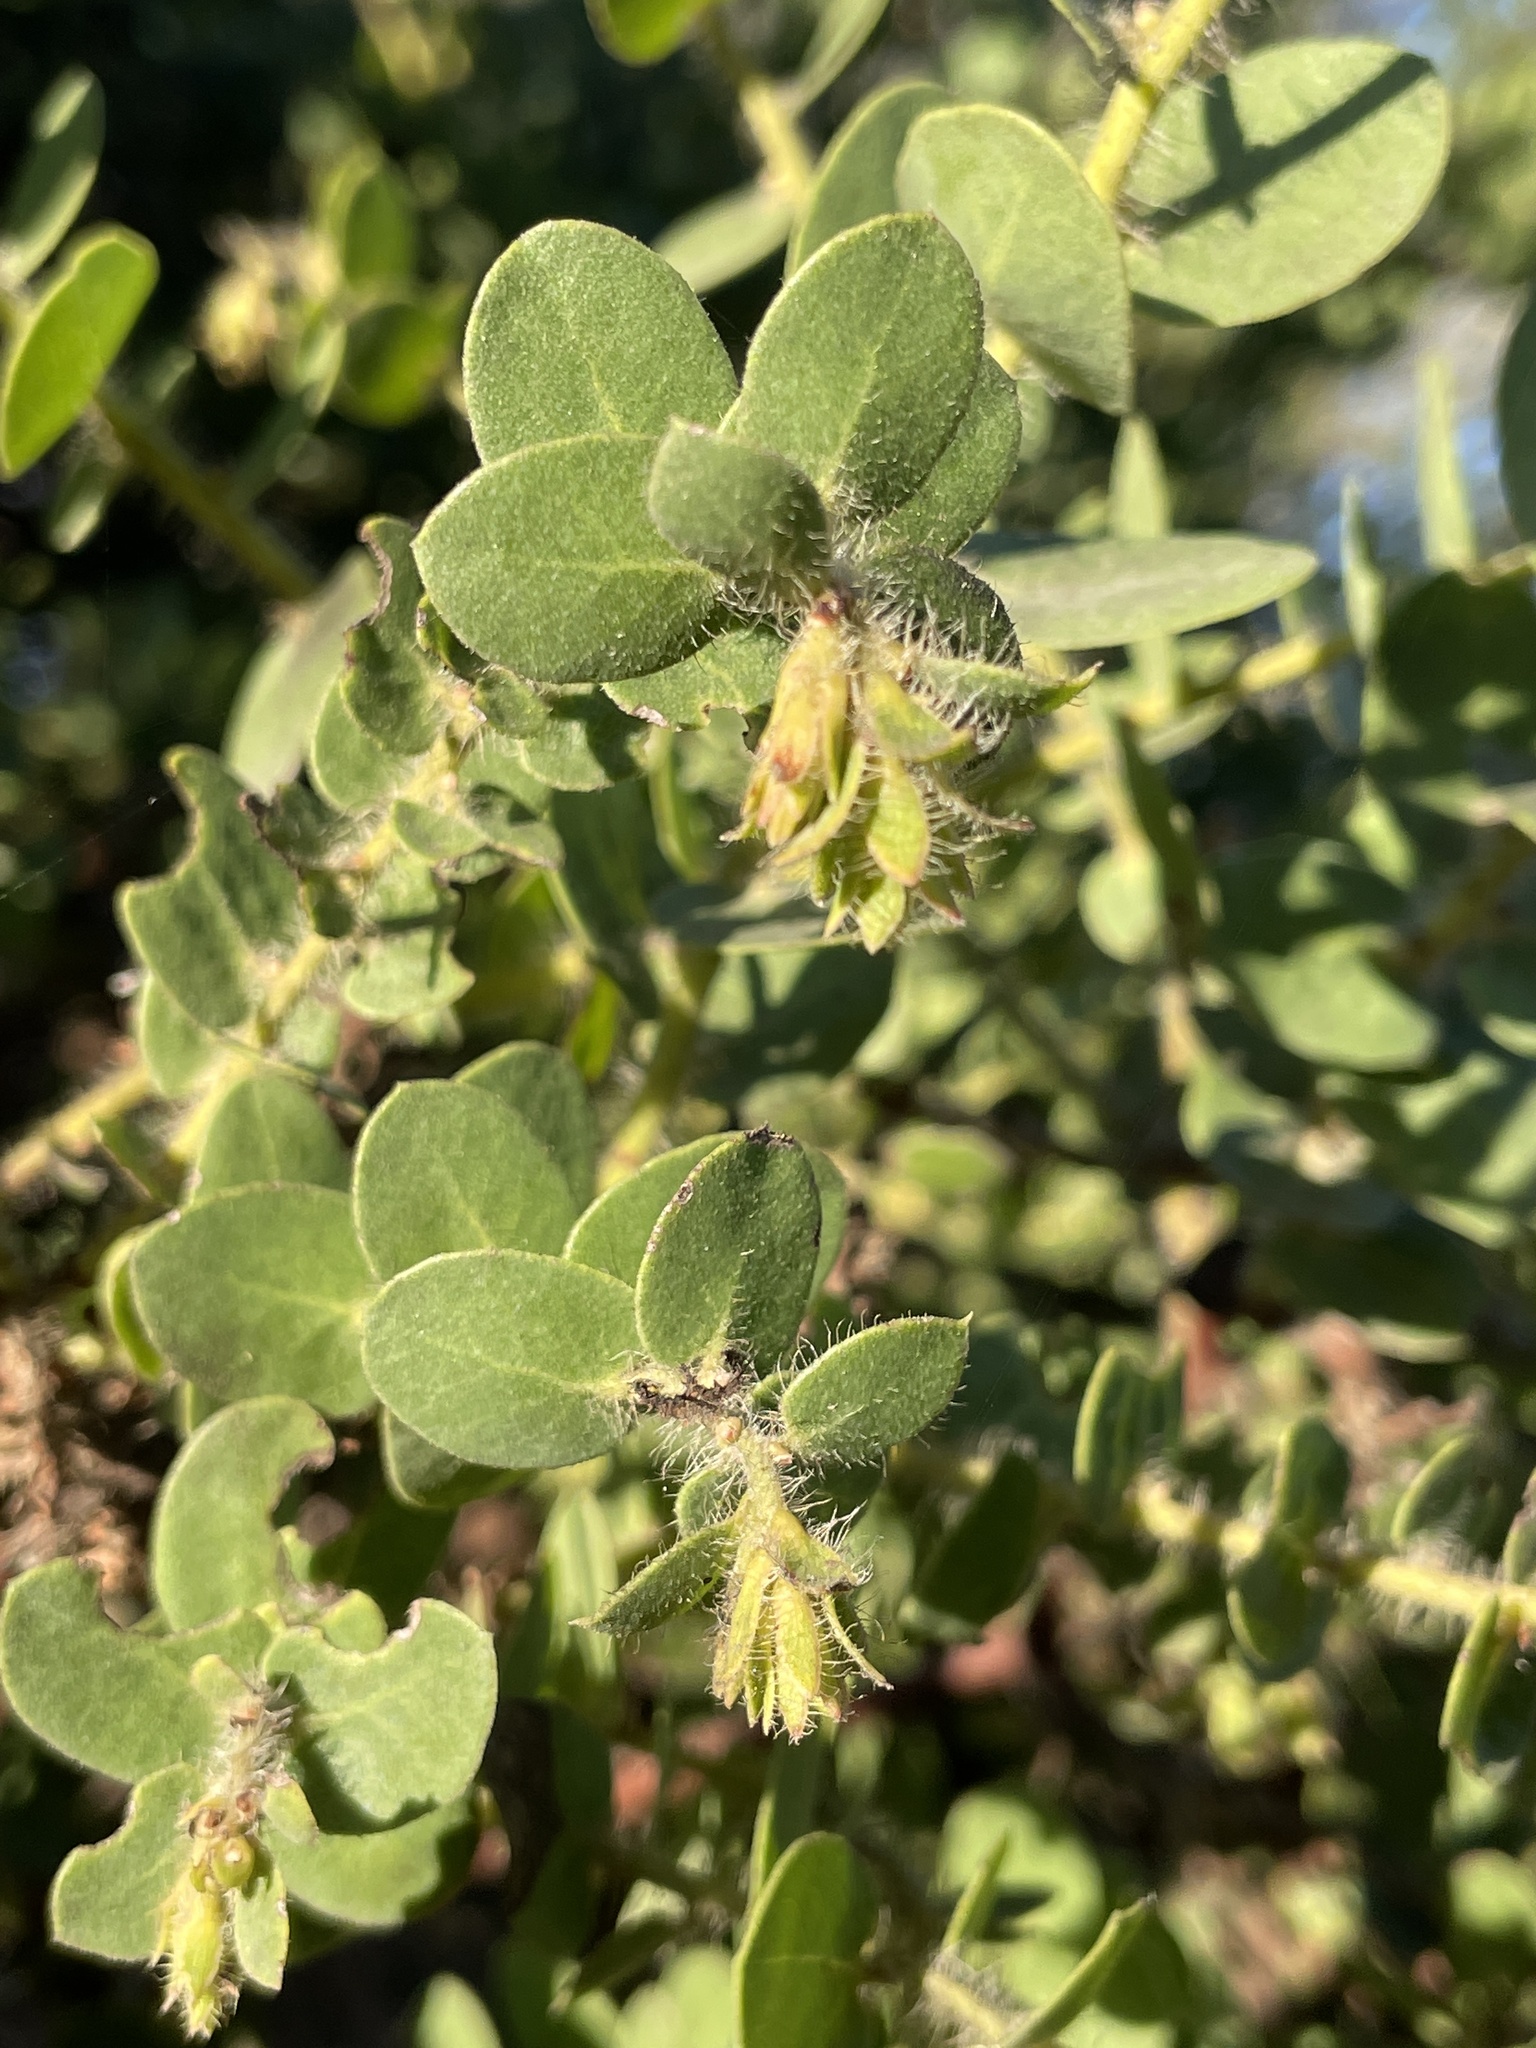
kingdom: Plantae
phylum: Tracheophyta
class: Magnoliopsida
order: Ericales
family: Ericaceae
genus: Arctostaphylos
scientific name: Arctostaphylos purissima
